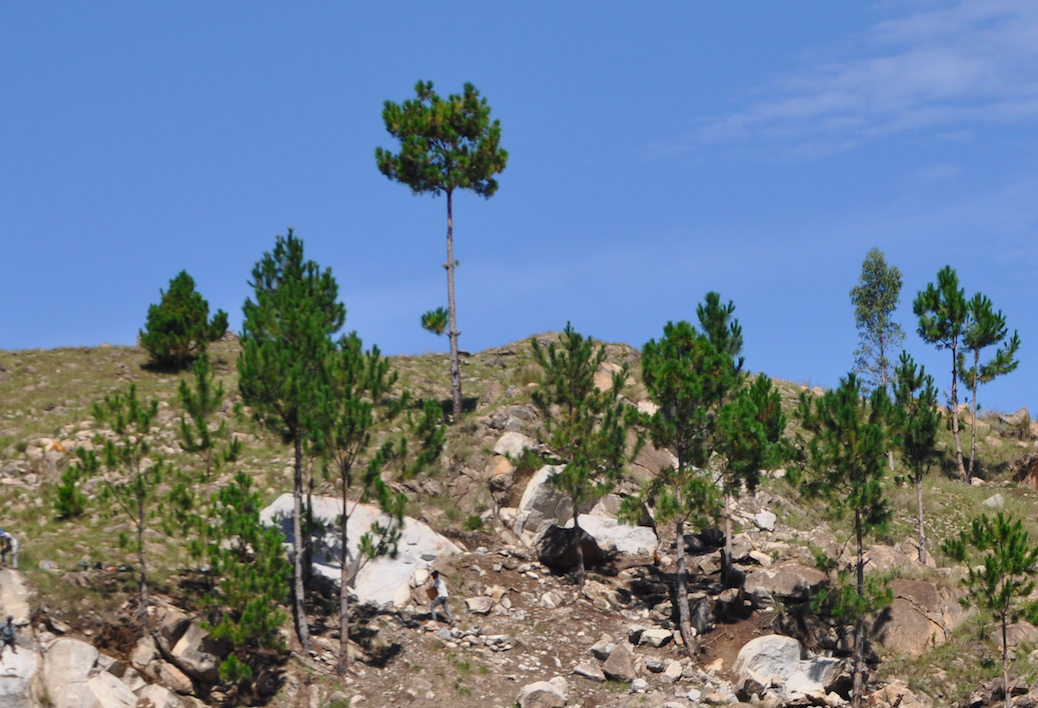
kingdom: Plantae
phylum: Tracheophyta
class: Pinopsida
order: Pinales
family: Pinaceae
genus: Pinus
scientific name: Pinus kesiya
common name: Benguet pine
